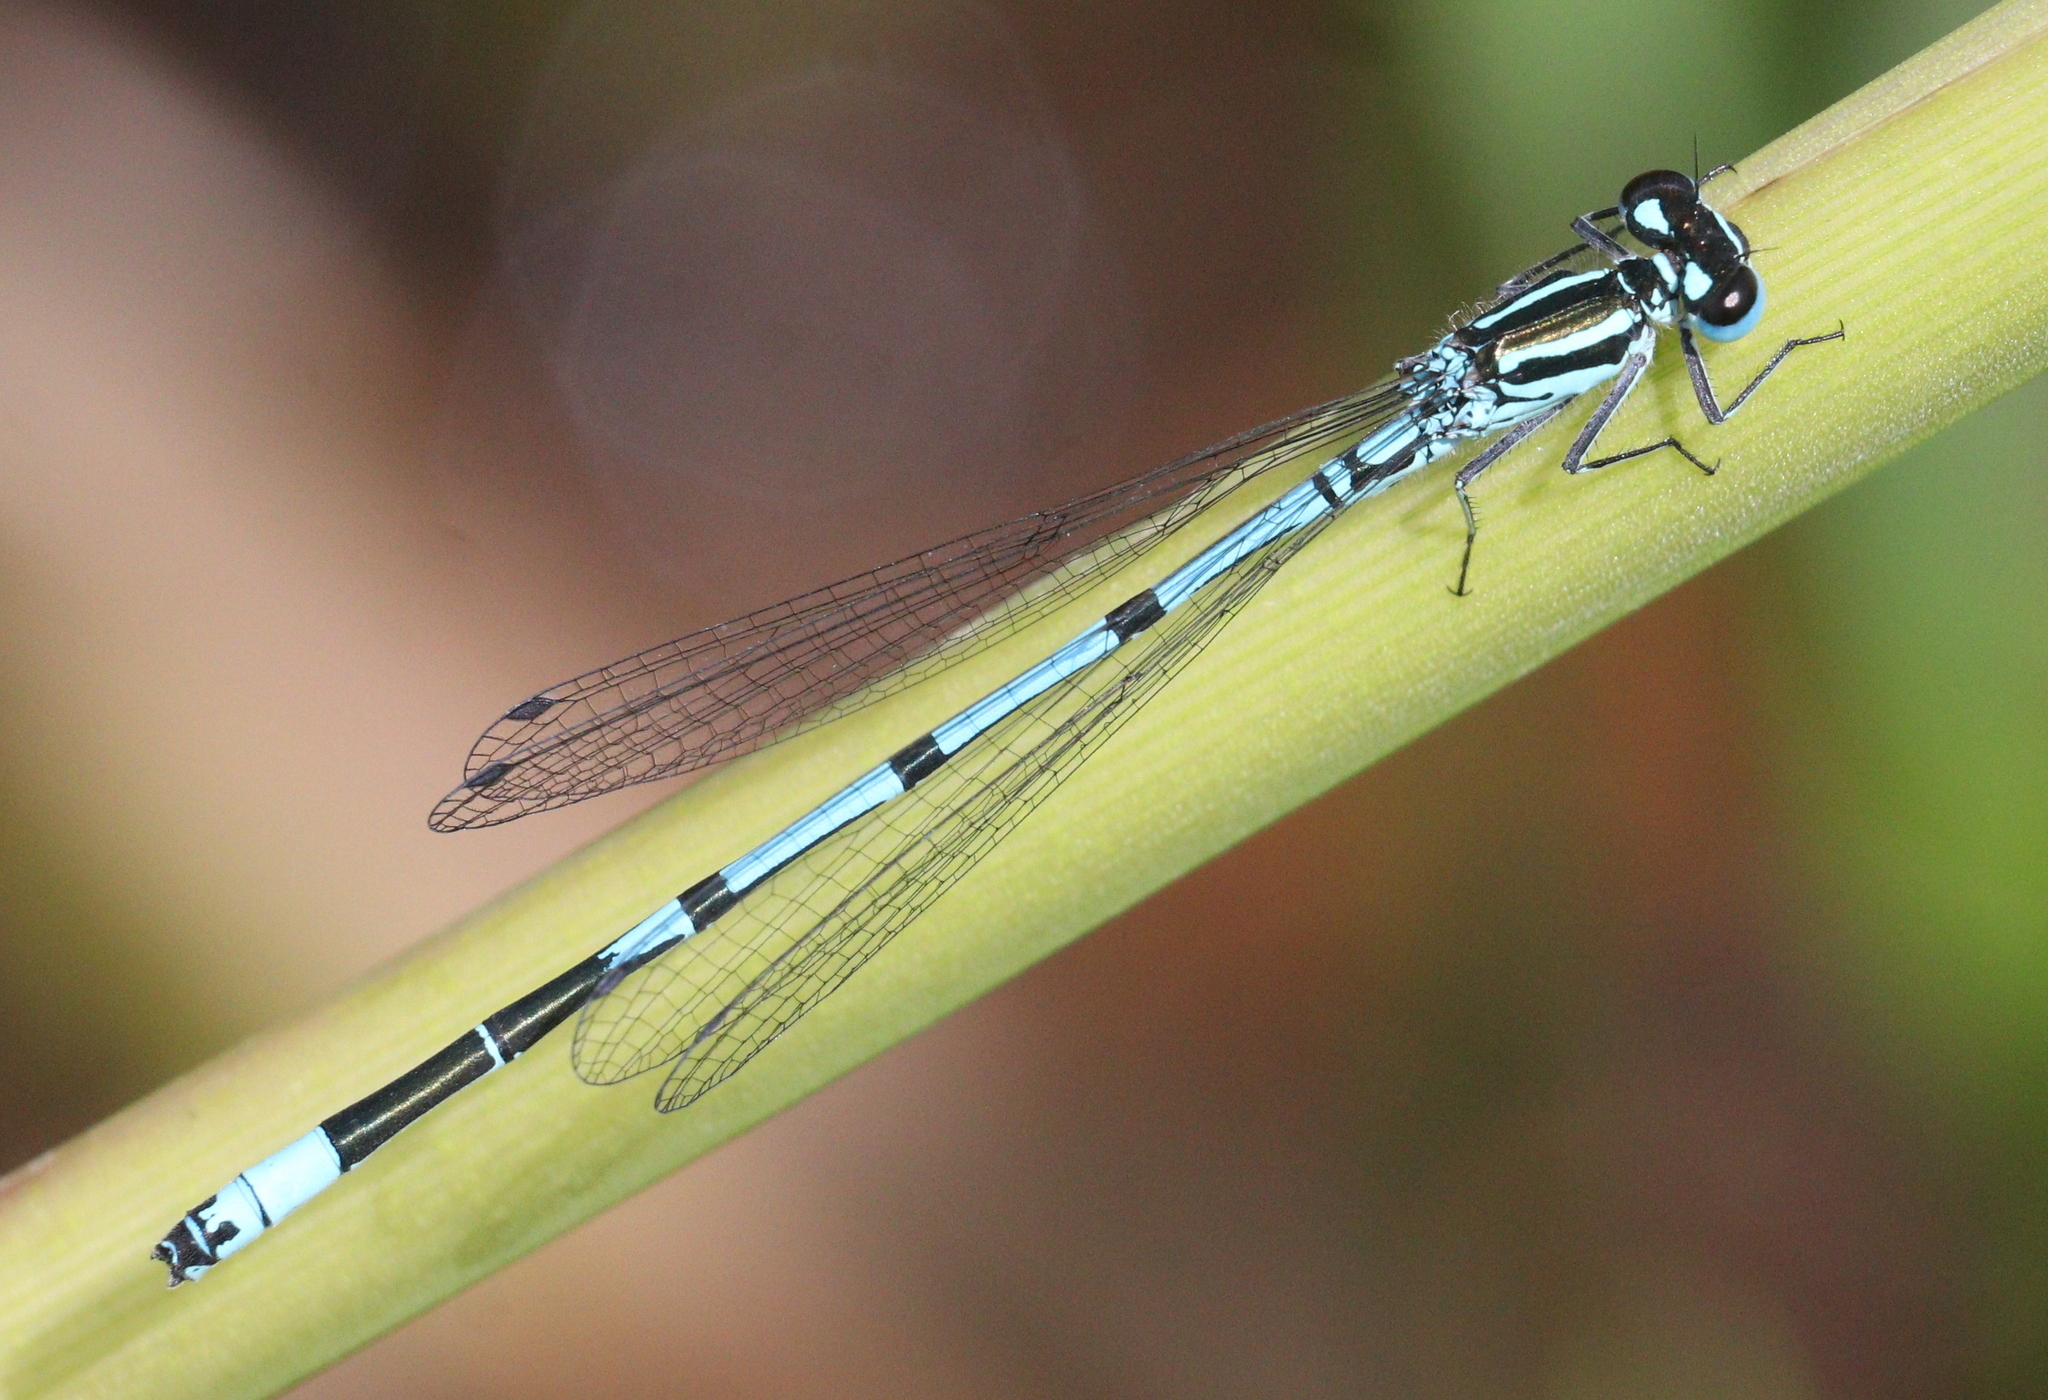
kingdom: Animalia
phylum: Arthropoda
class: Insecta
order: Odonata
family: Coenagrionidae
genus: Coenagrion
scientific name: Coenagrion puella
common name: Azure damselfly
